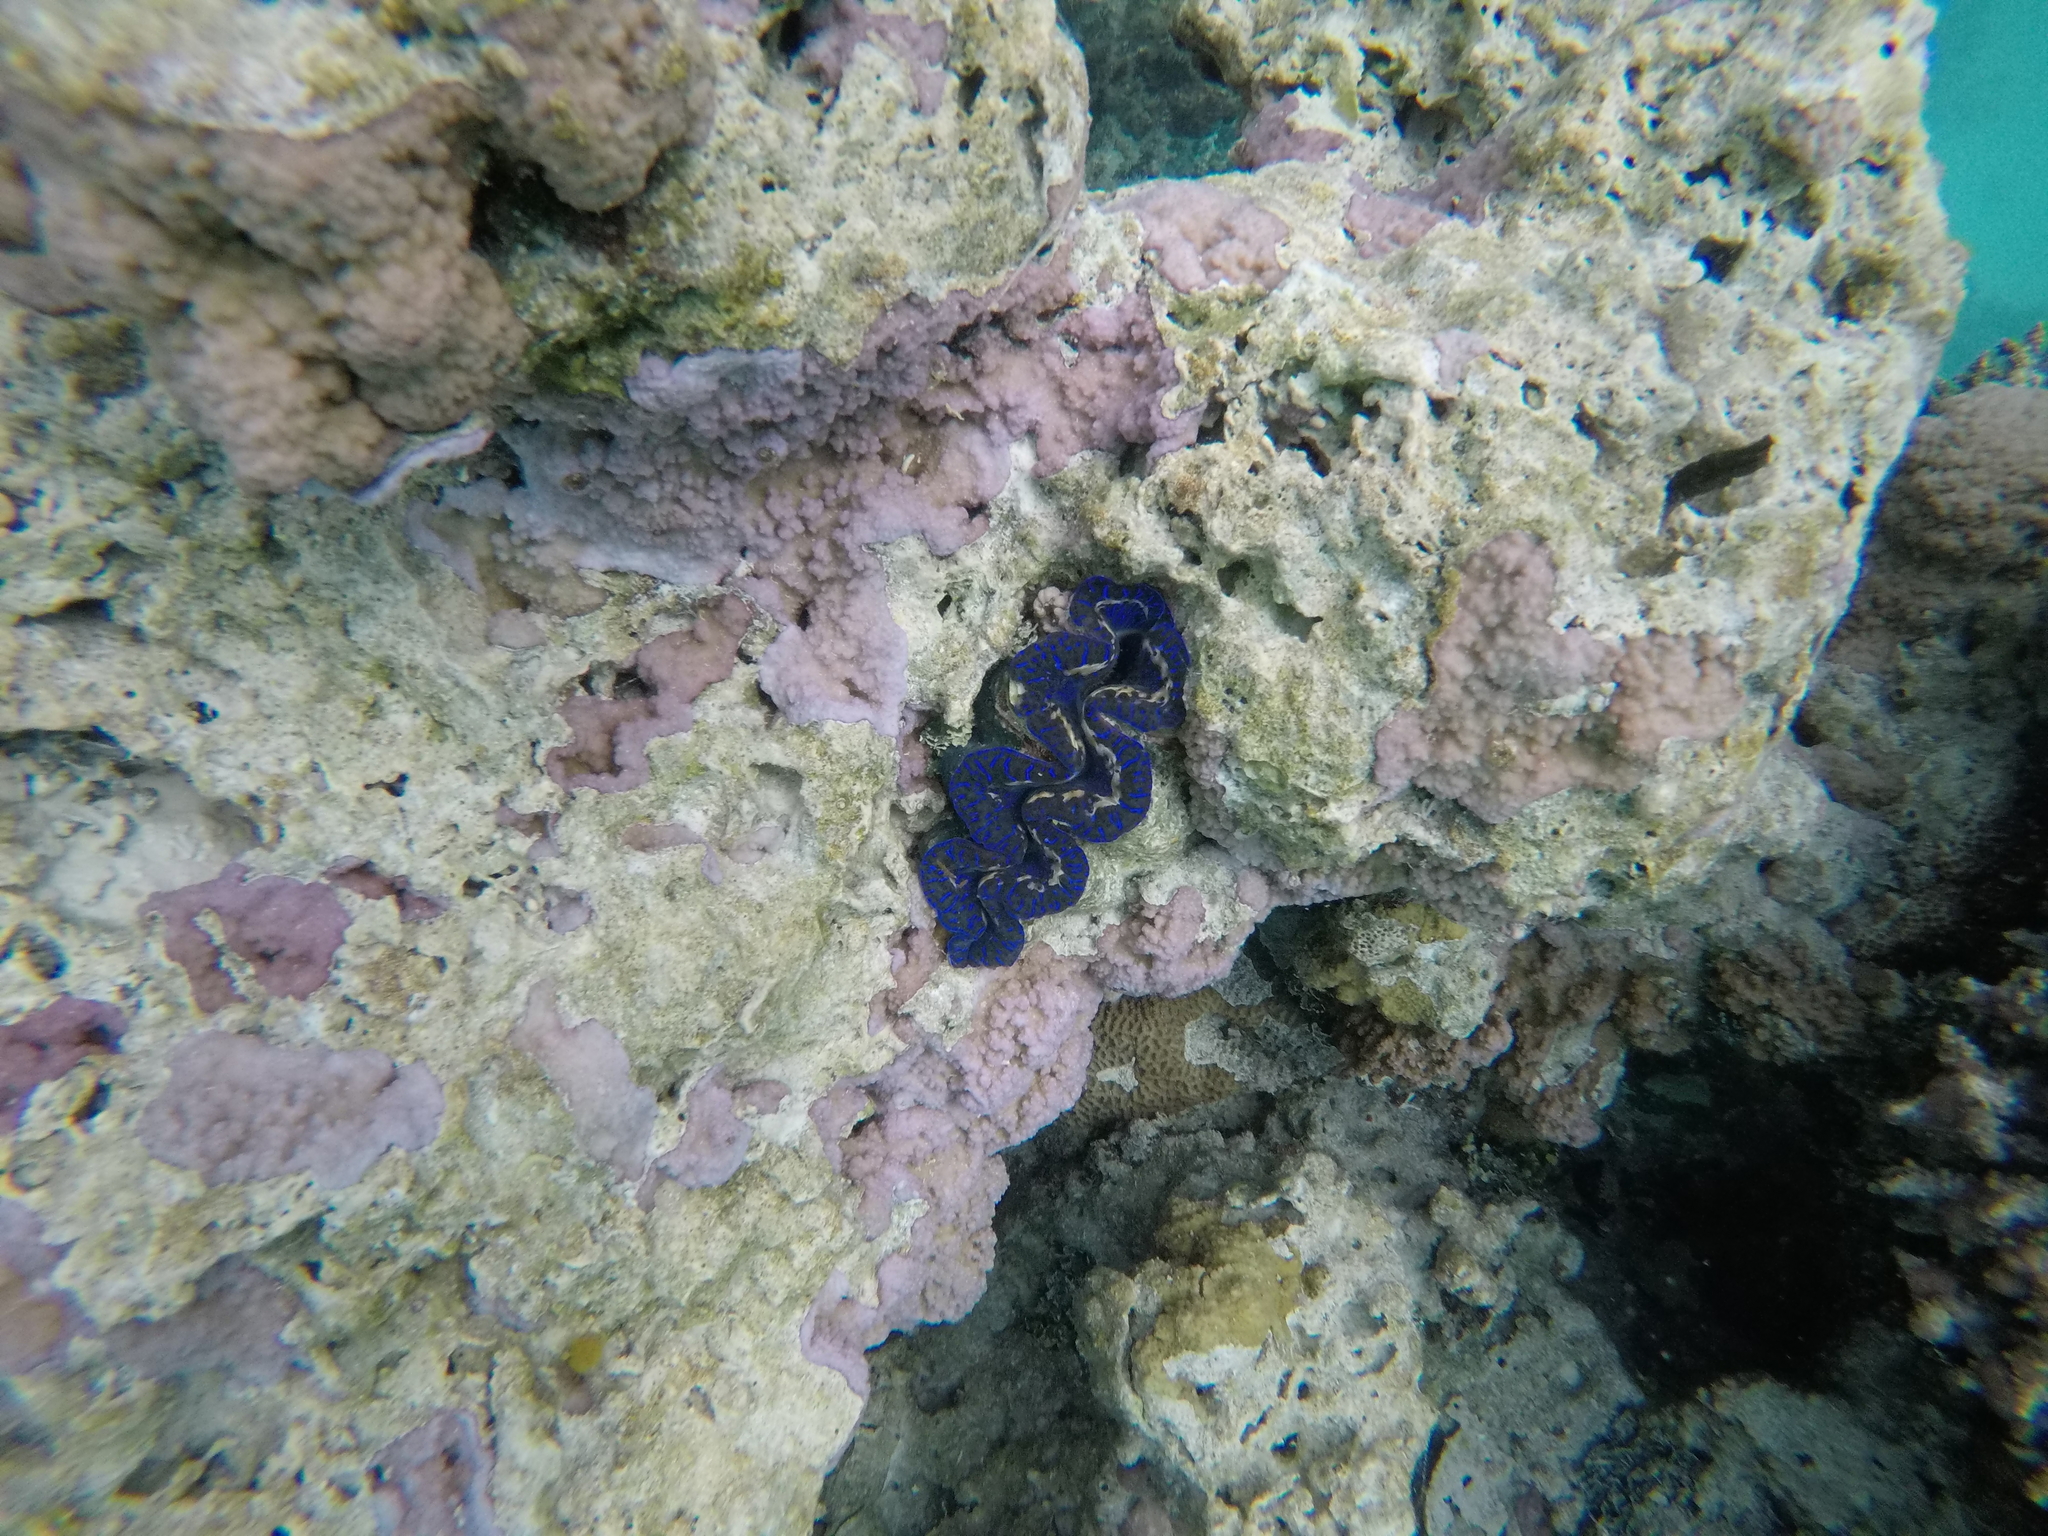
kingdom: Animalia
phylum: Mollusca
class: Bivalvia
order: Cardiida
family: Cardiidae
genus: Tridacna
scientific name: Tridacna maxima
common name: Small giant clam
